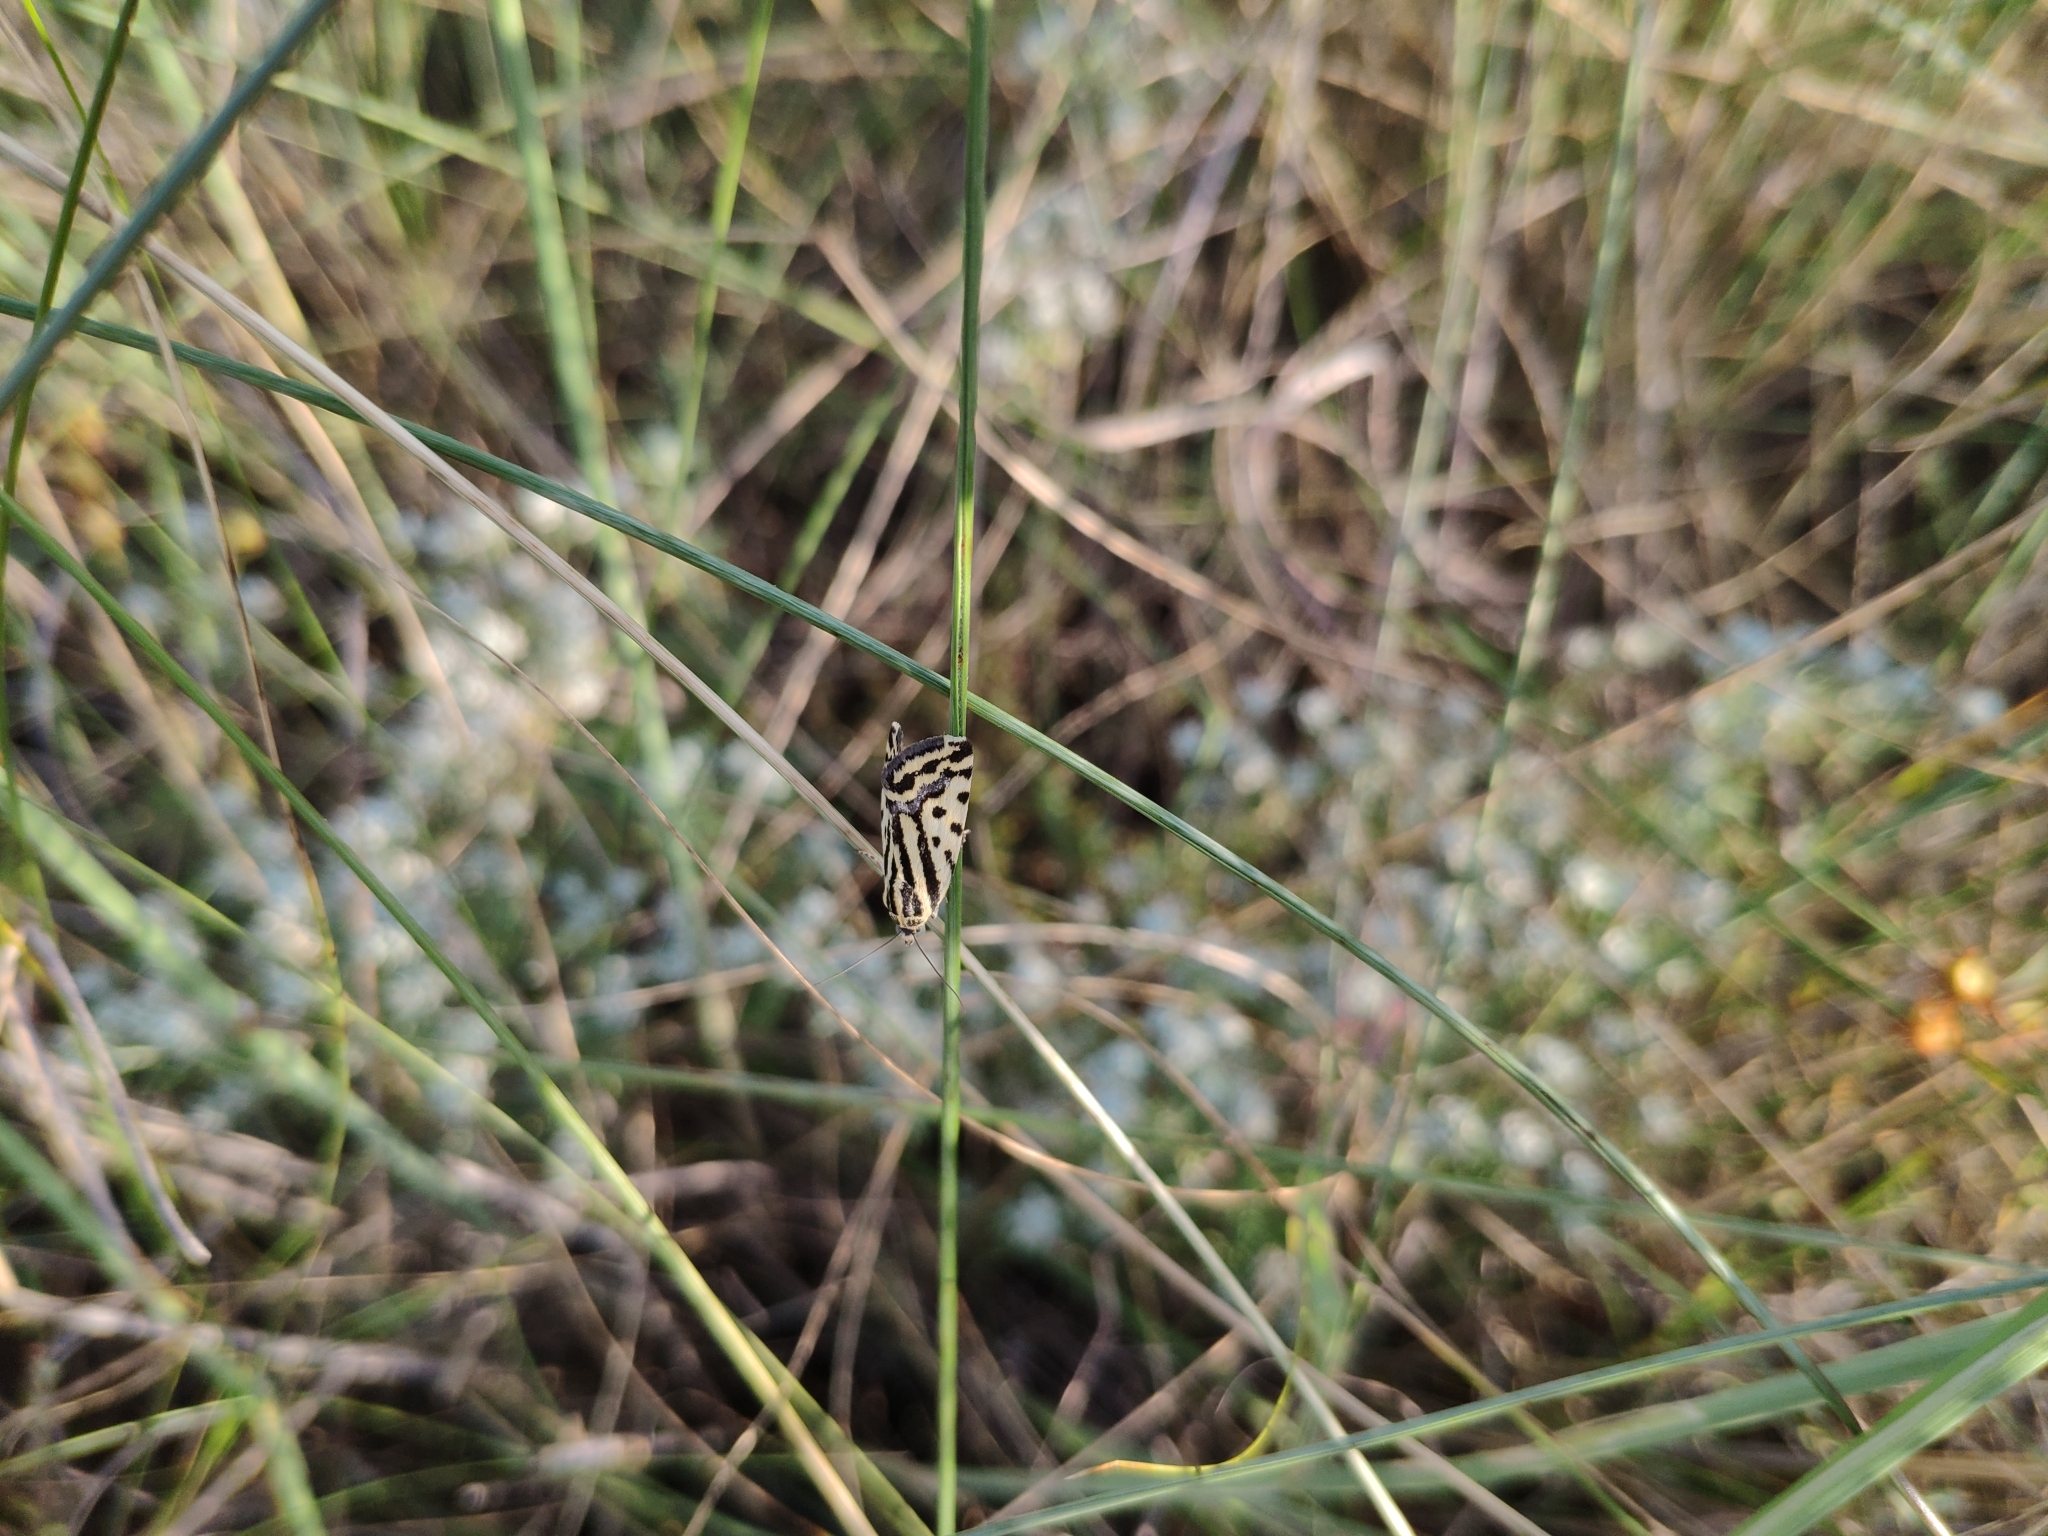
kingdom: Animalia
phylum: Arthropoda
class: Insecta
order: Lepidoptera
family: Noctuidae
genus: Acontia
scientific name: Acontia trabealis
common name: Spotted sulphur
